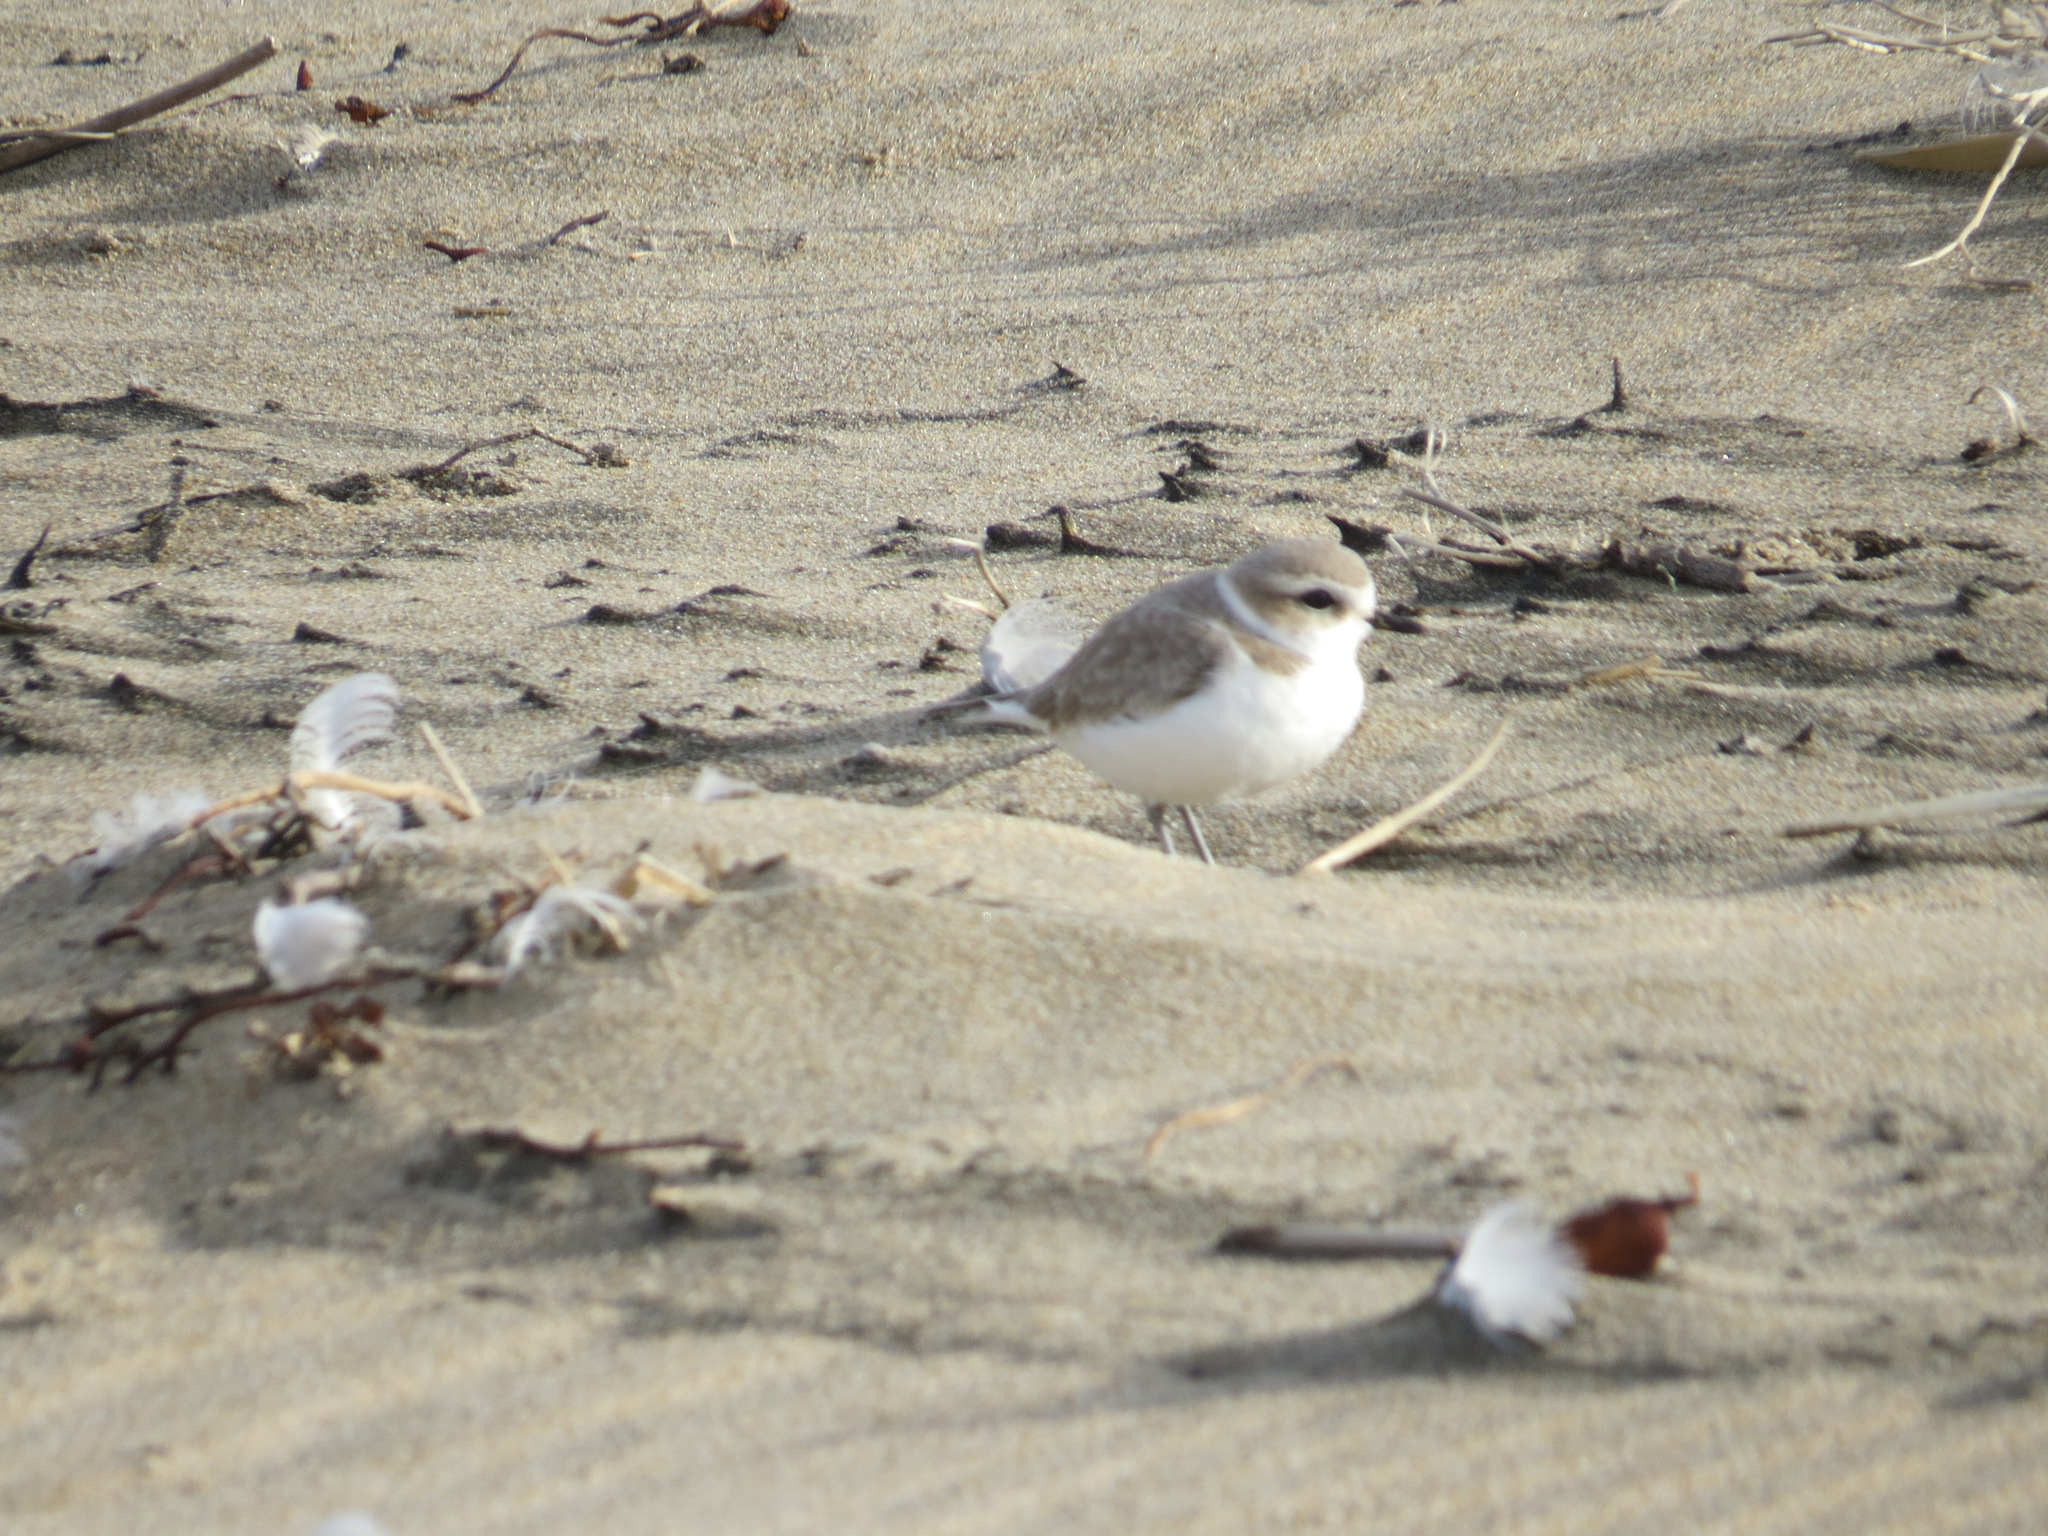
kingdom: Animalia
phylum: Chordata
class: Aves
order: Charadriiformes
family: Charadriidae
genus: Anarhynchus
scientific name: Anarhynchus
